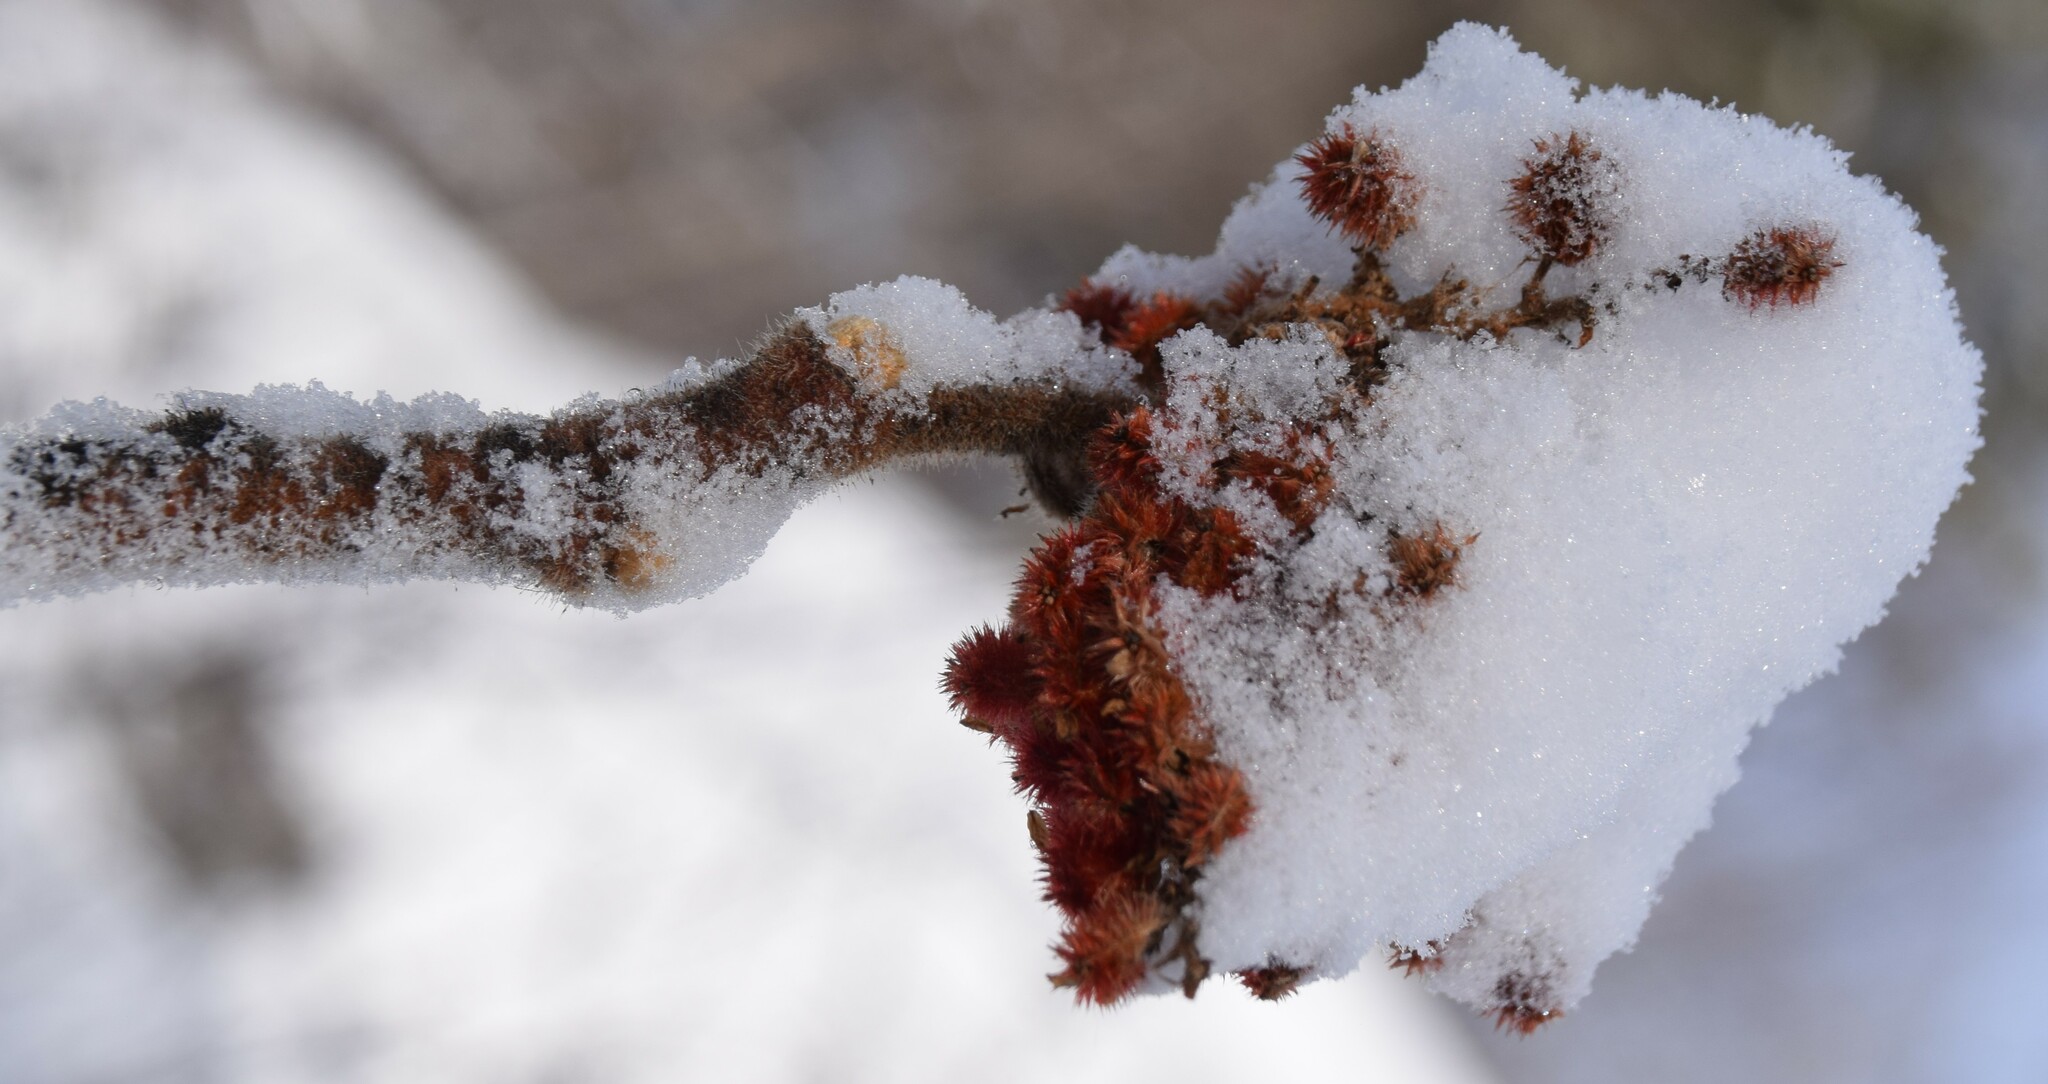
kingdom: Plantae
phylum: Tracheophyta
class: Magnoliopsida
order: Sapindales
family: Anacardiaceae
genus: Rhus
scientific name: Rhus typhina
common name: Staghorn sumac
